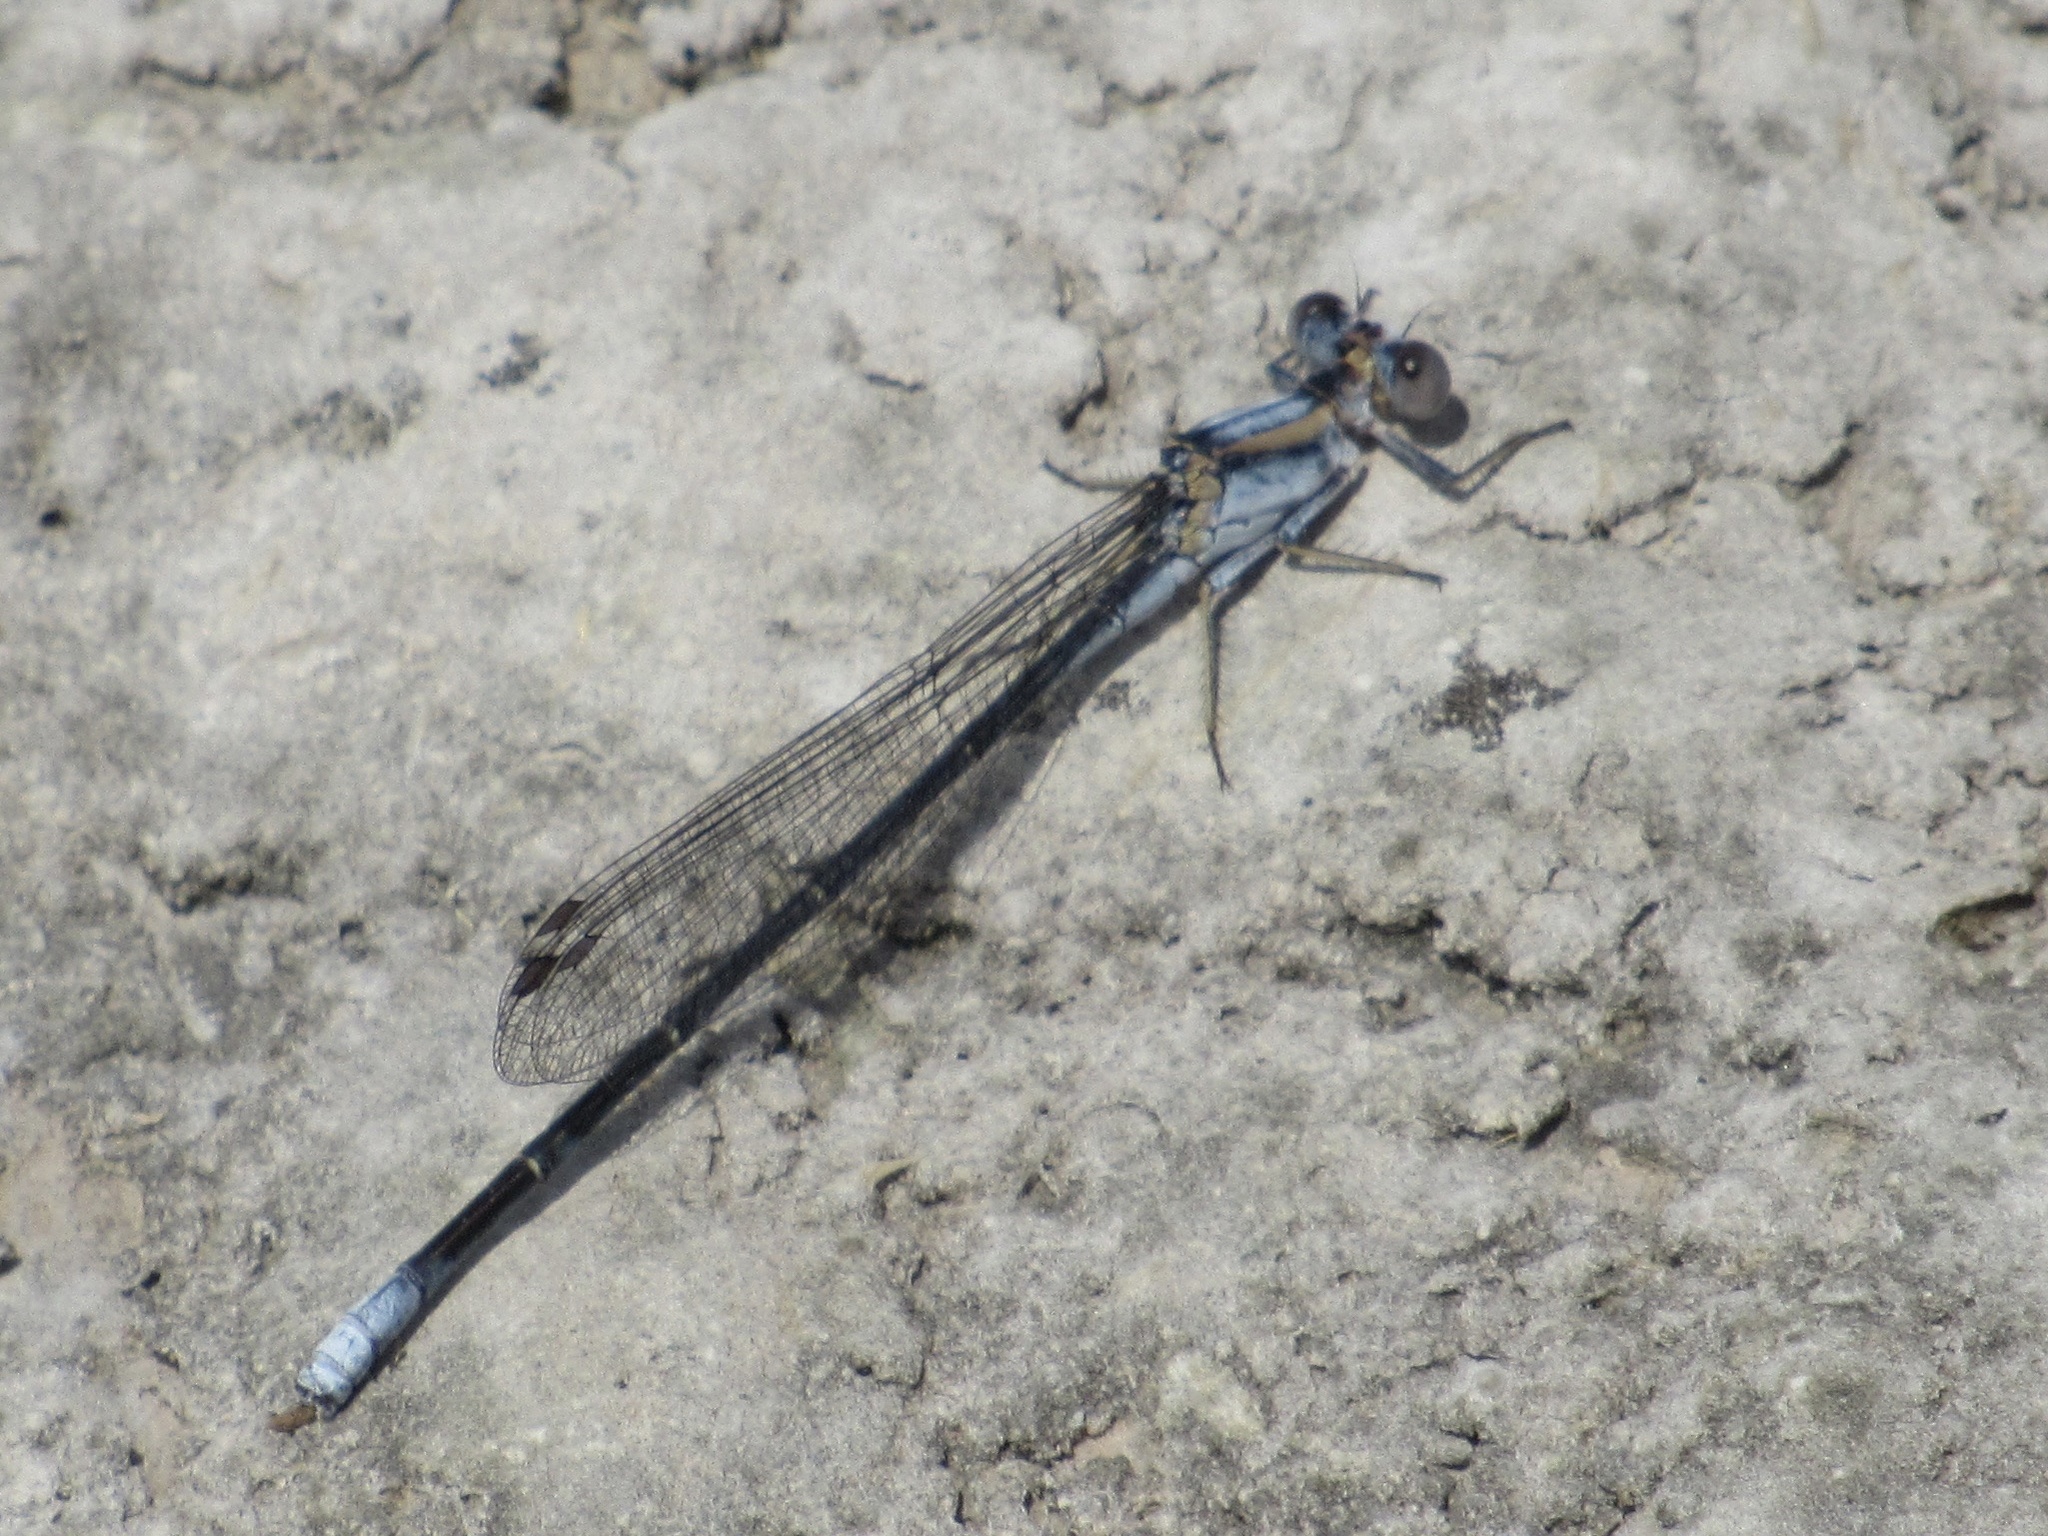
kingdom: Animalia
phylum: Arthropoda
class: Insecta
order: Odonata
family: Coenagrionidae
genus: Argia
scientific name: Argia moesta
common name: Powdered dancer
